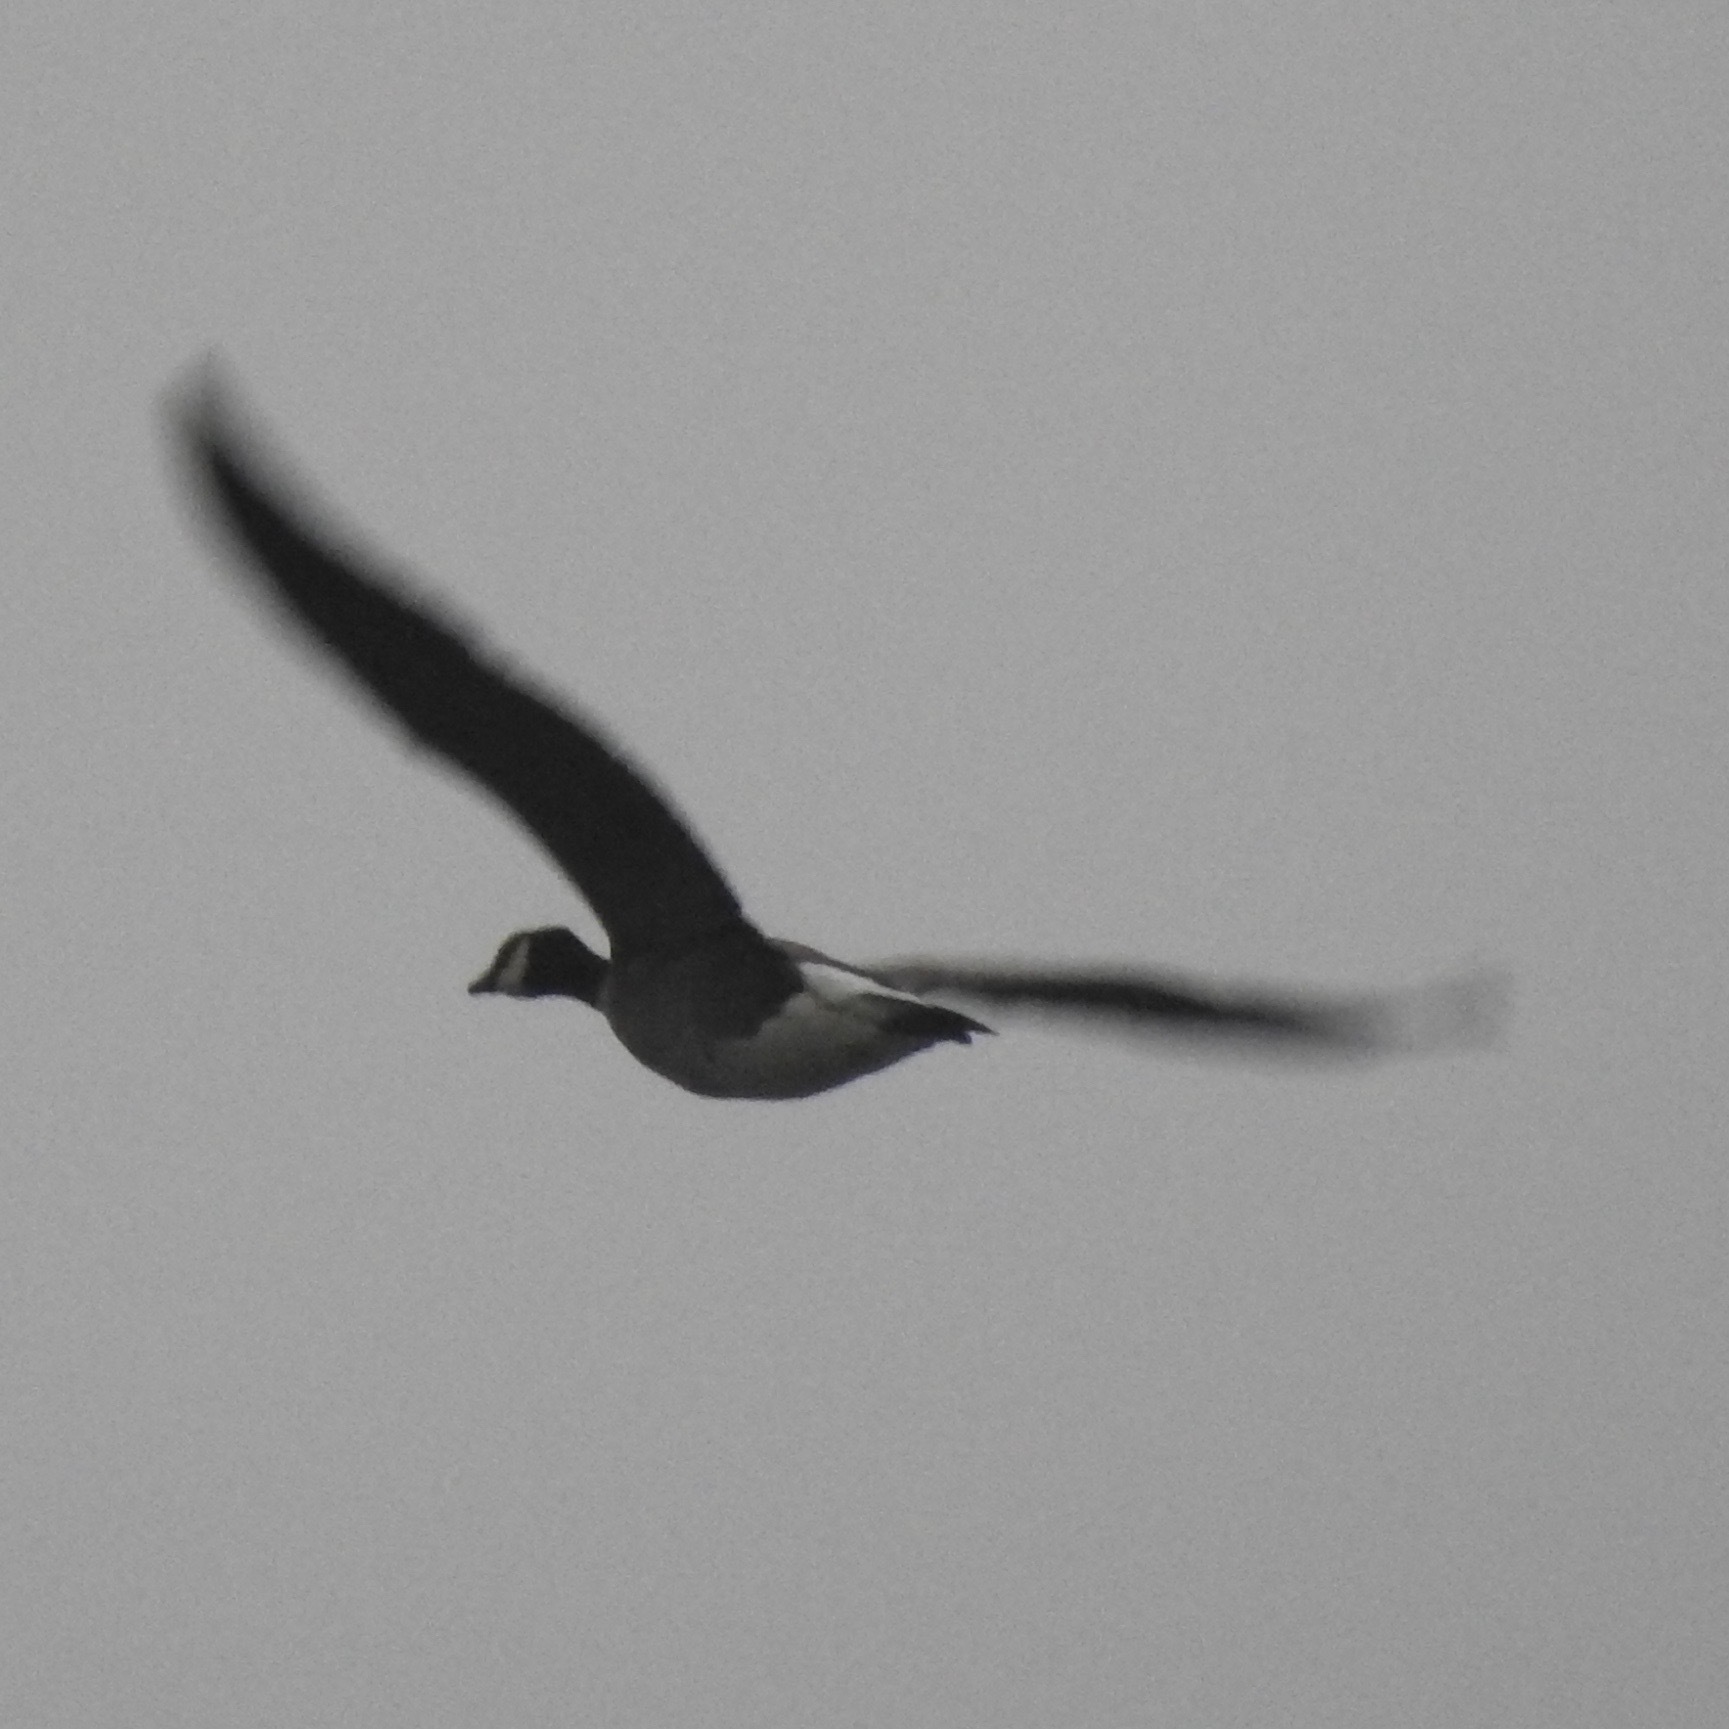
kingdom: Animalia
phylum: Chordata
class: Aves
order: Anseriformes
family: Anatidae
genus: Branta
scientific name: Branta canadensis
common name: Canada goose
